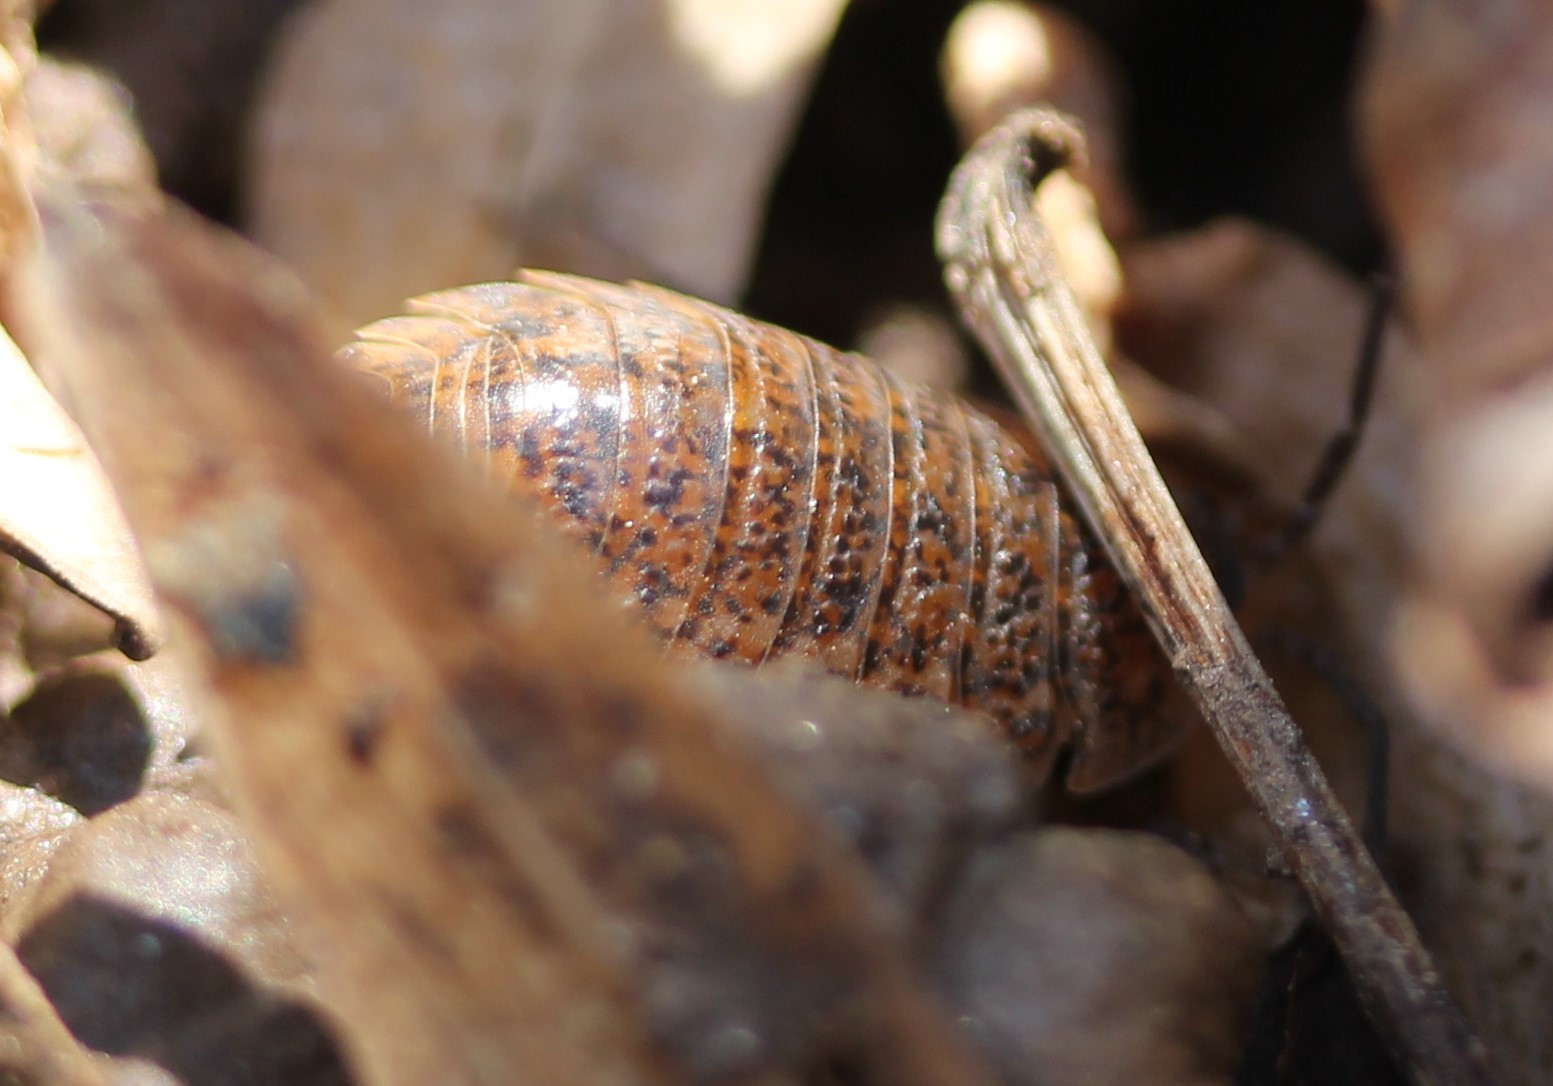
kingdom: Animalia
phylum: Arthropoda
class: Malacostraca
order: Isopoda
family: Trachelipodidae
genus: Trachelipus
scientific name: Trachelipus rathkii
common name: Isopod
